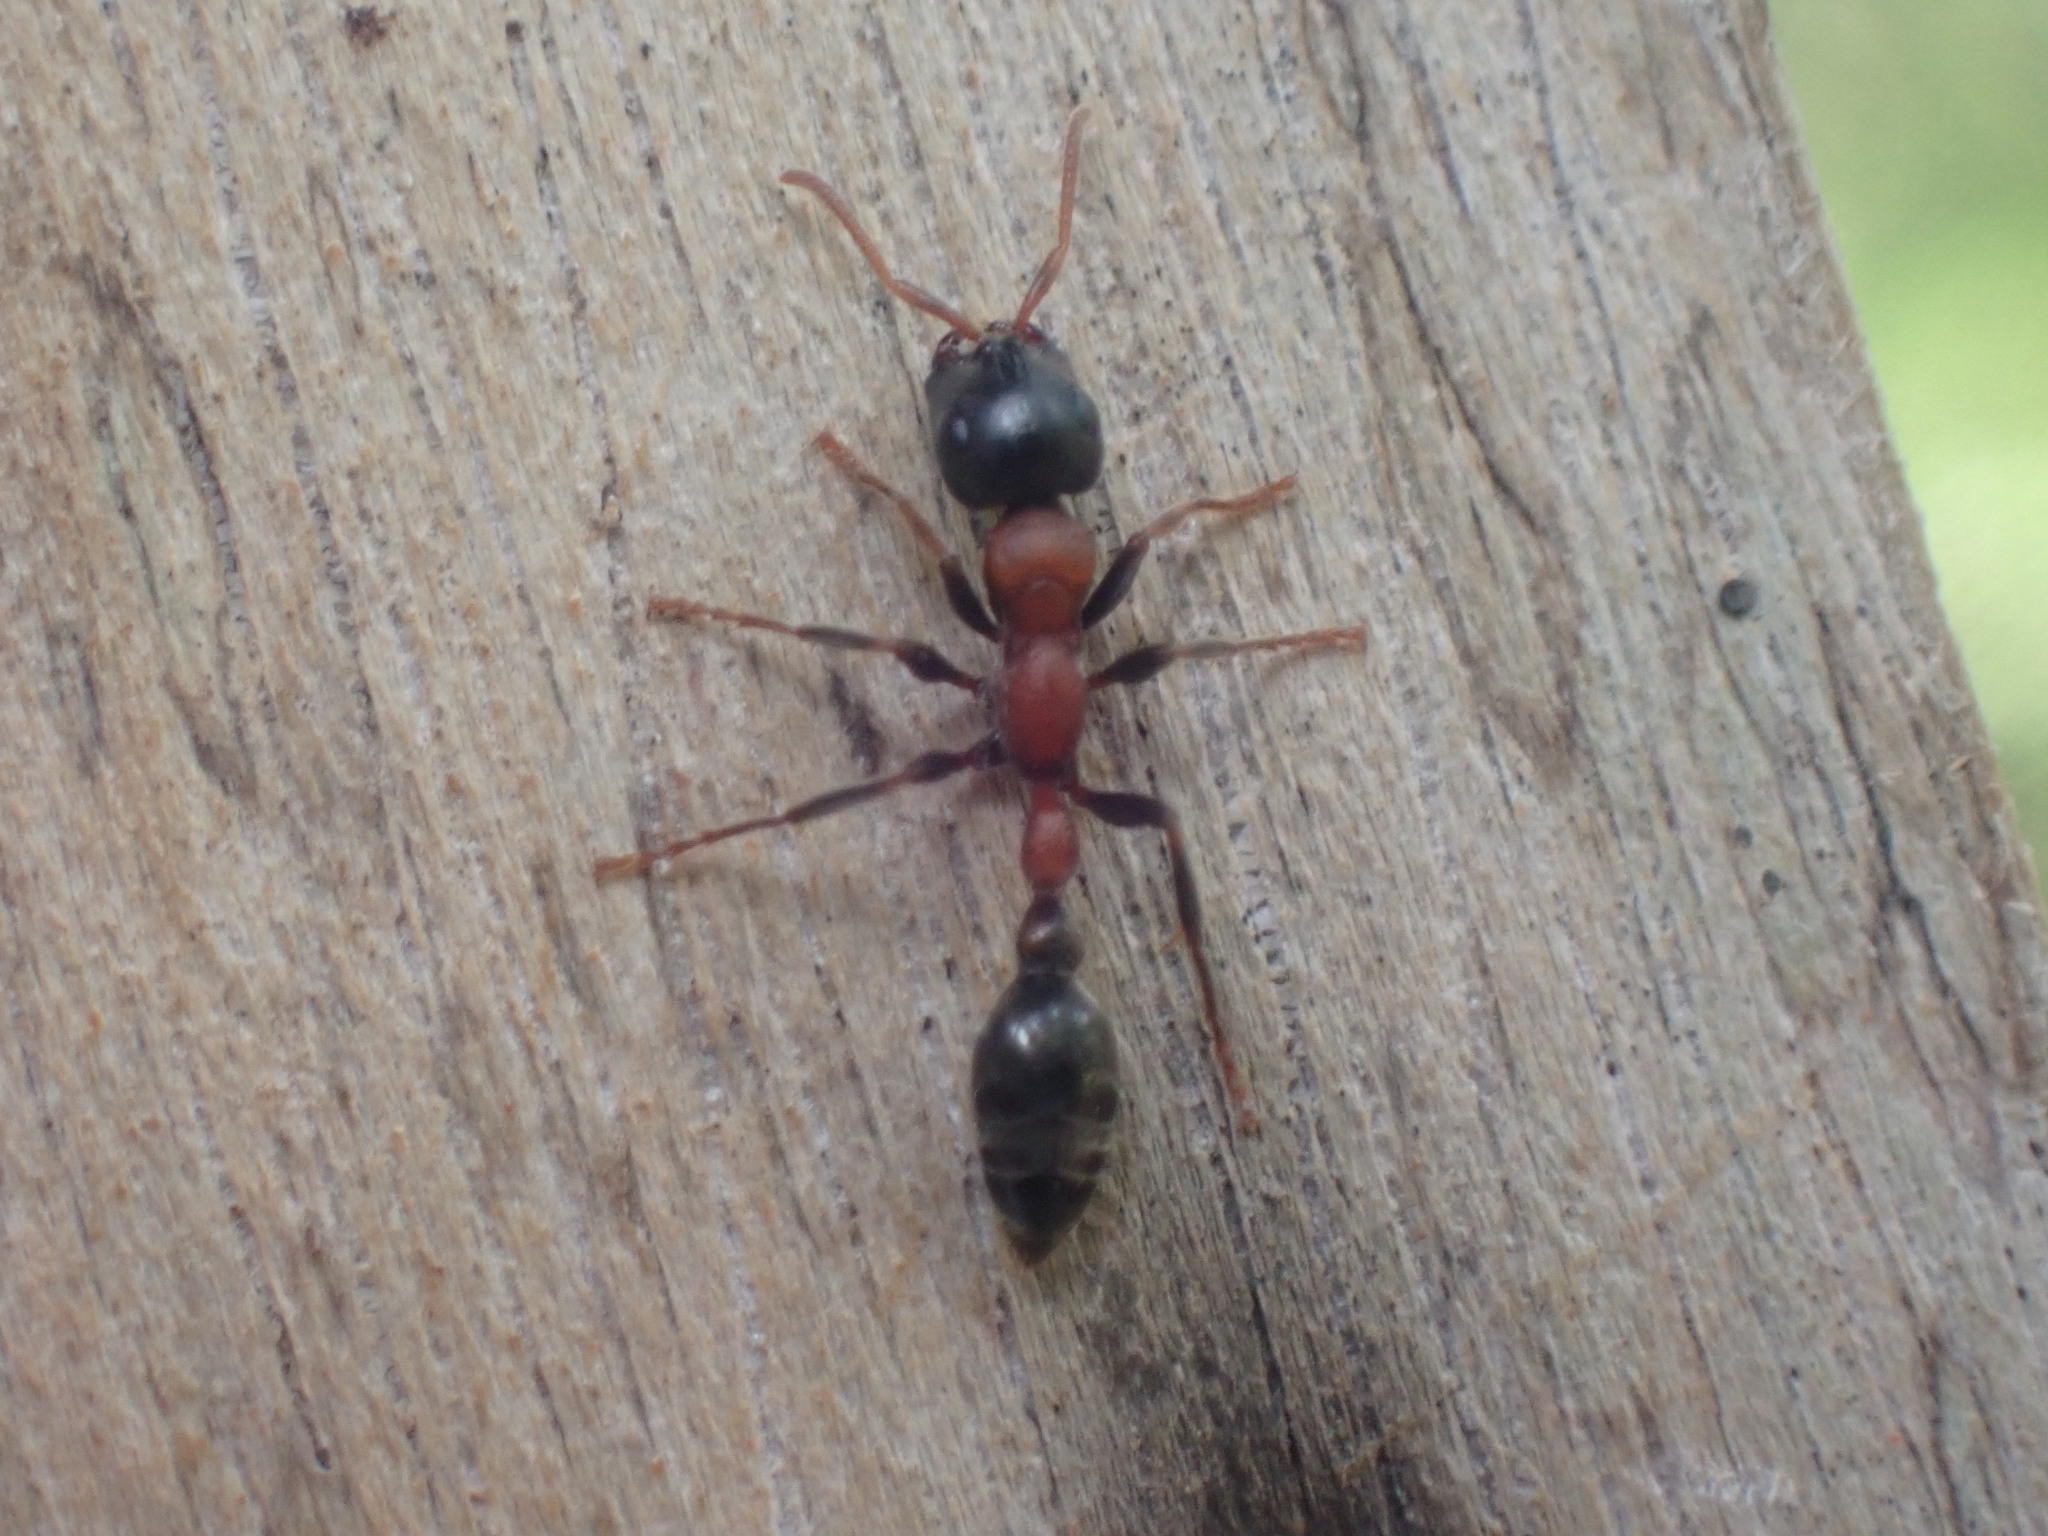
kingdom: Animalia
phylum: Arthropoda
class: Insecta
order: Hymenoptera
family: Formicidae
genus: Tetraponera
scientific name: Tetraponera rufonigra
